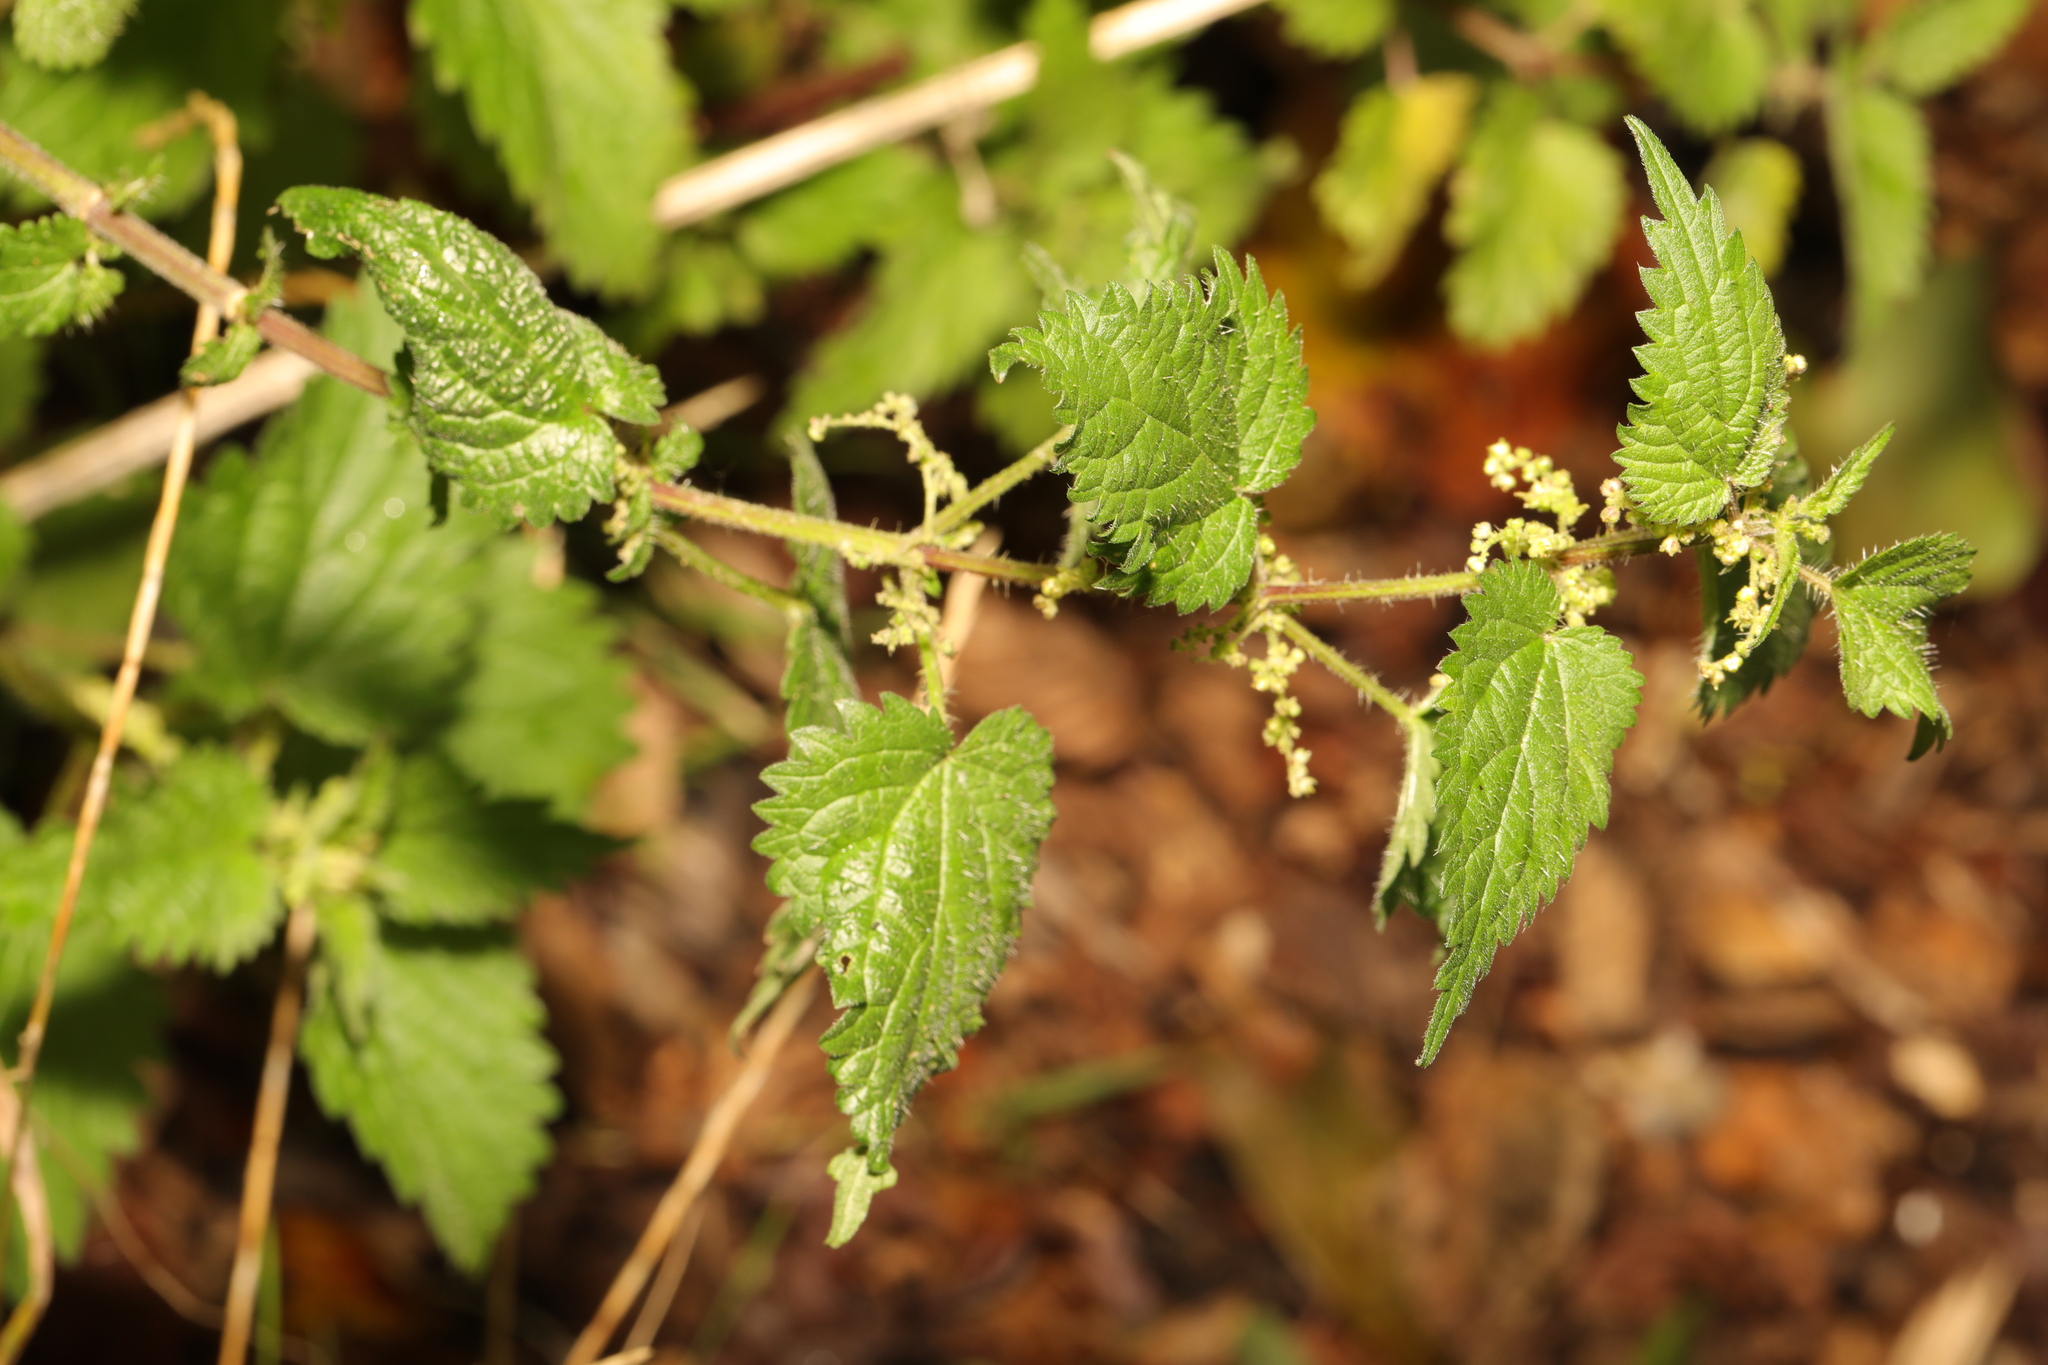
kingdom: Plantae
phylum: Tracheophyta
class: Magnoliopsida
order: Rosales
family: Urticaceae
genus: Urtica
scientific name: Urtica dioica
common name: Common nettle
